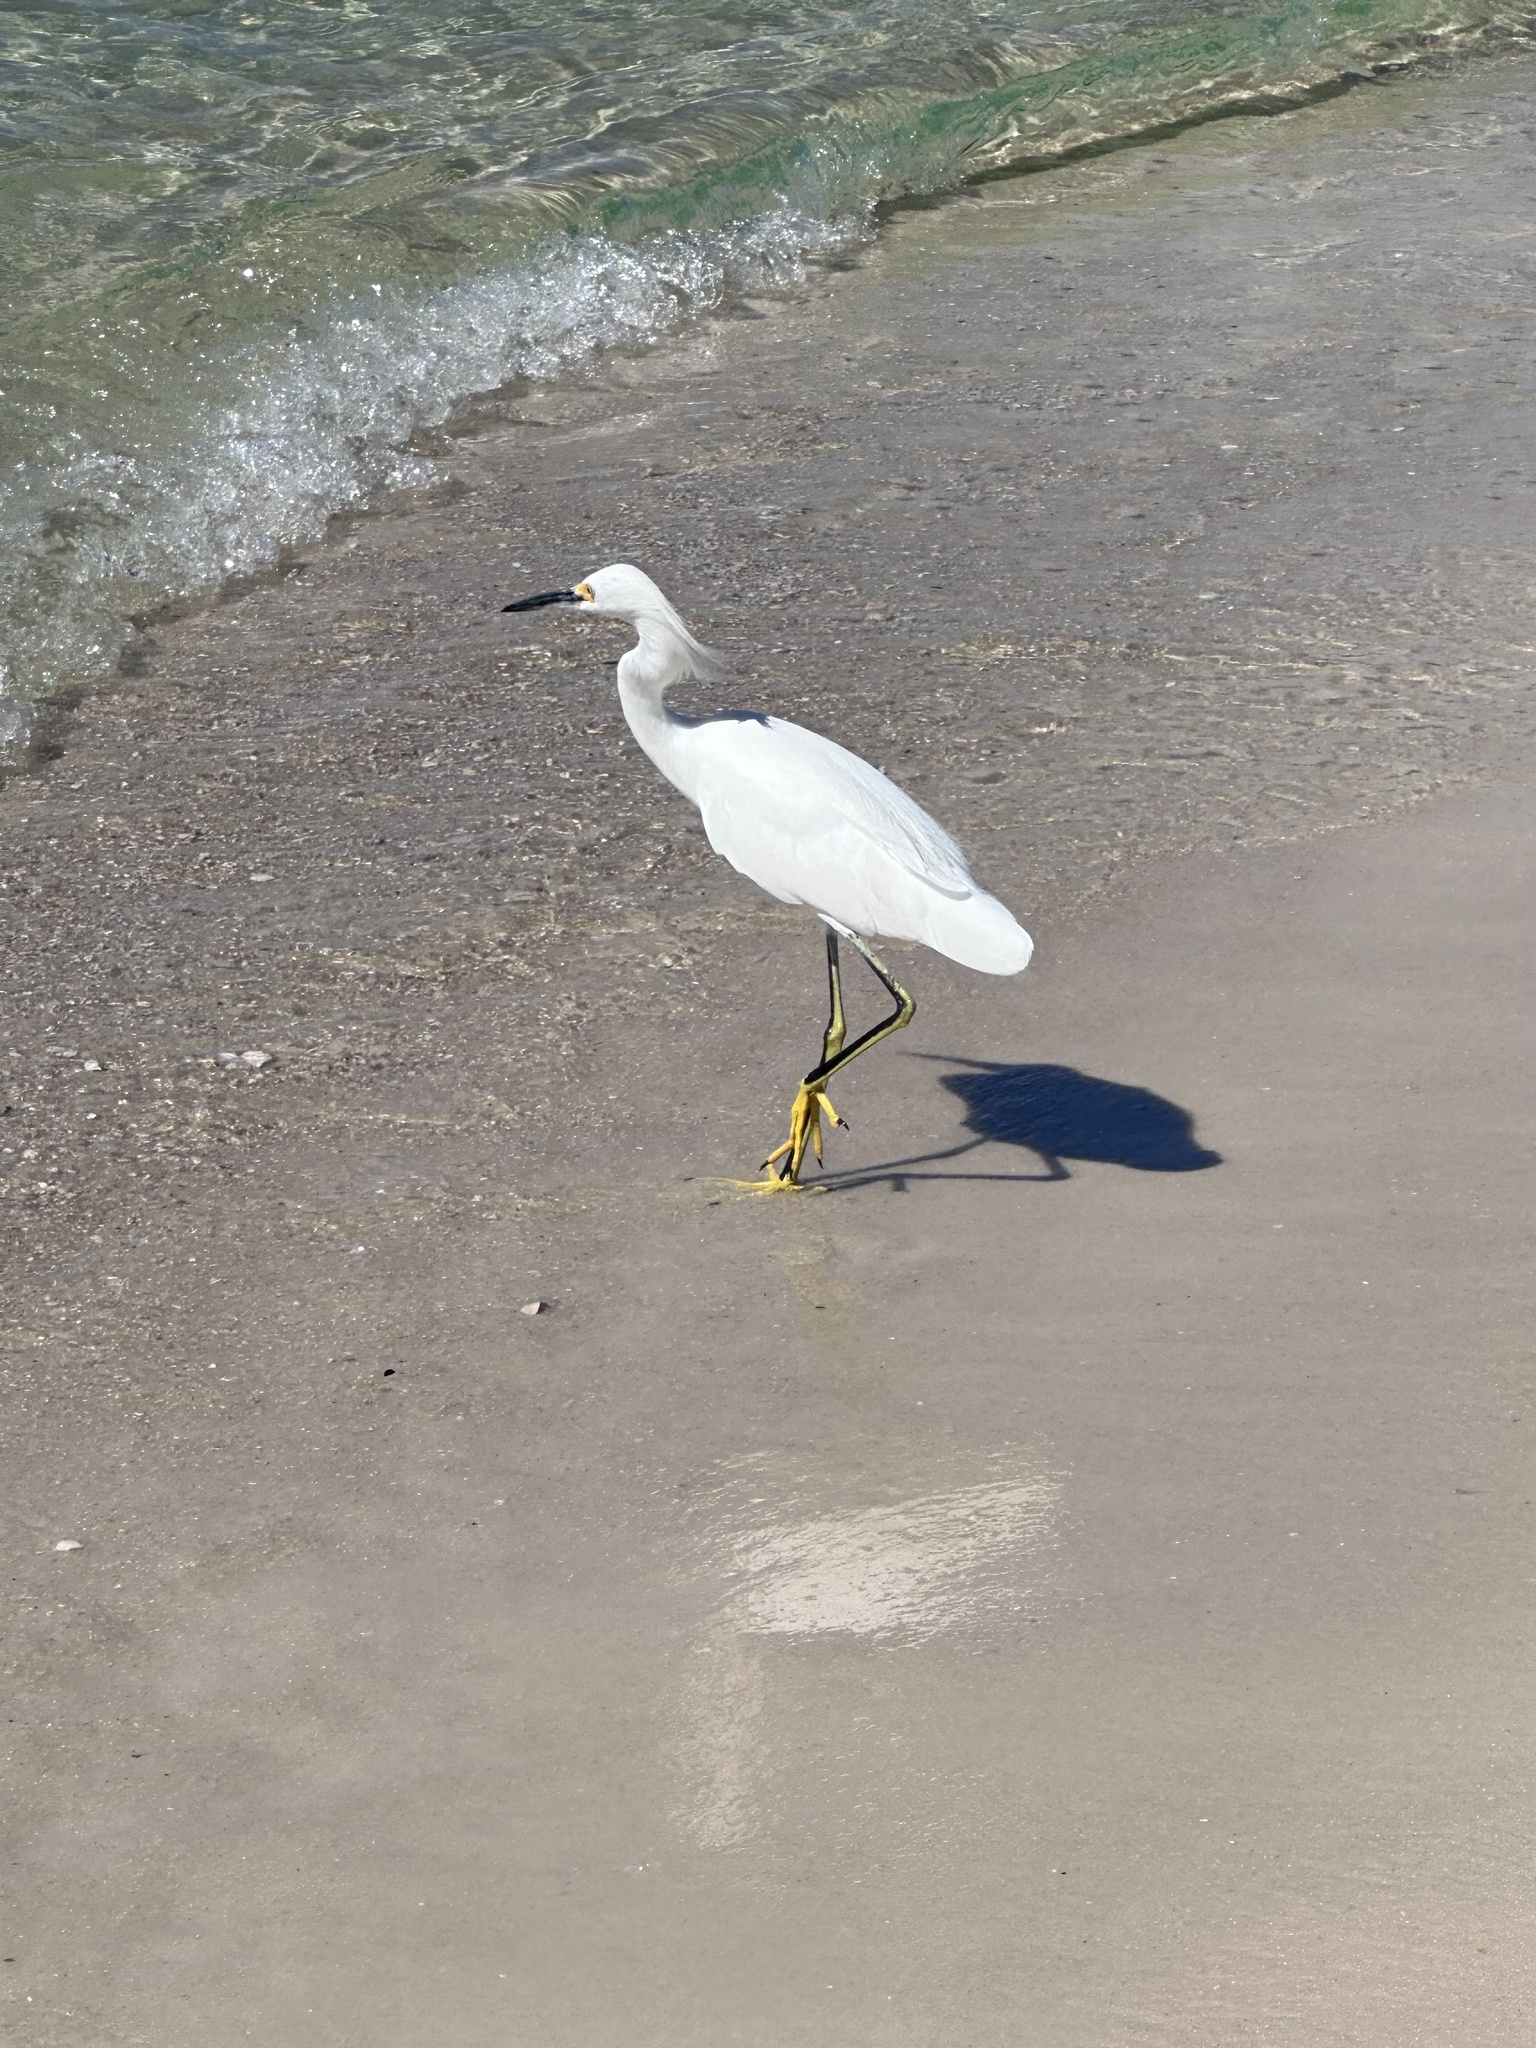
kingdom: Animalia
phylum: Chordata
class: Aves
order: Pelecaniformes
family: Ardeidae
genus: Egretta
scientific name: Egretta thula
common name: Snowy egret
